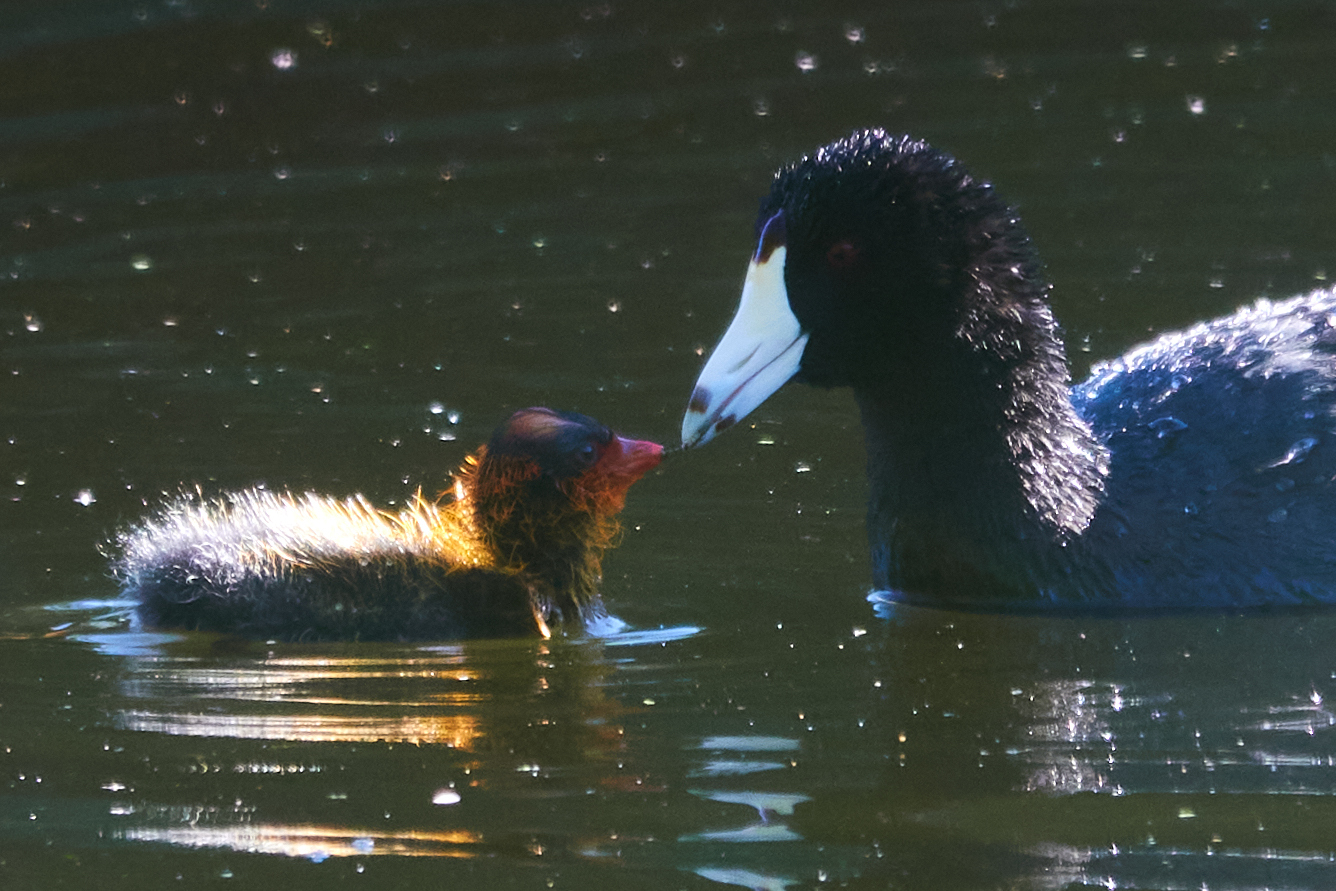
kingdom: Animalia
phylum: Chordata
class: Aves
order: Gruiformes
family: Rallidae
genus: Fulica
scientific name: Fulica americana
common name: American coot
